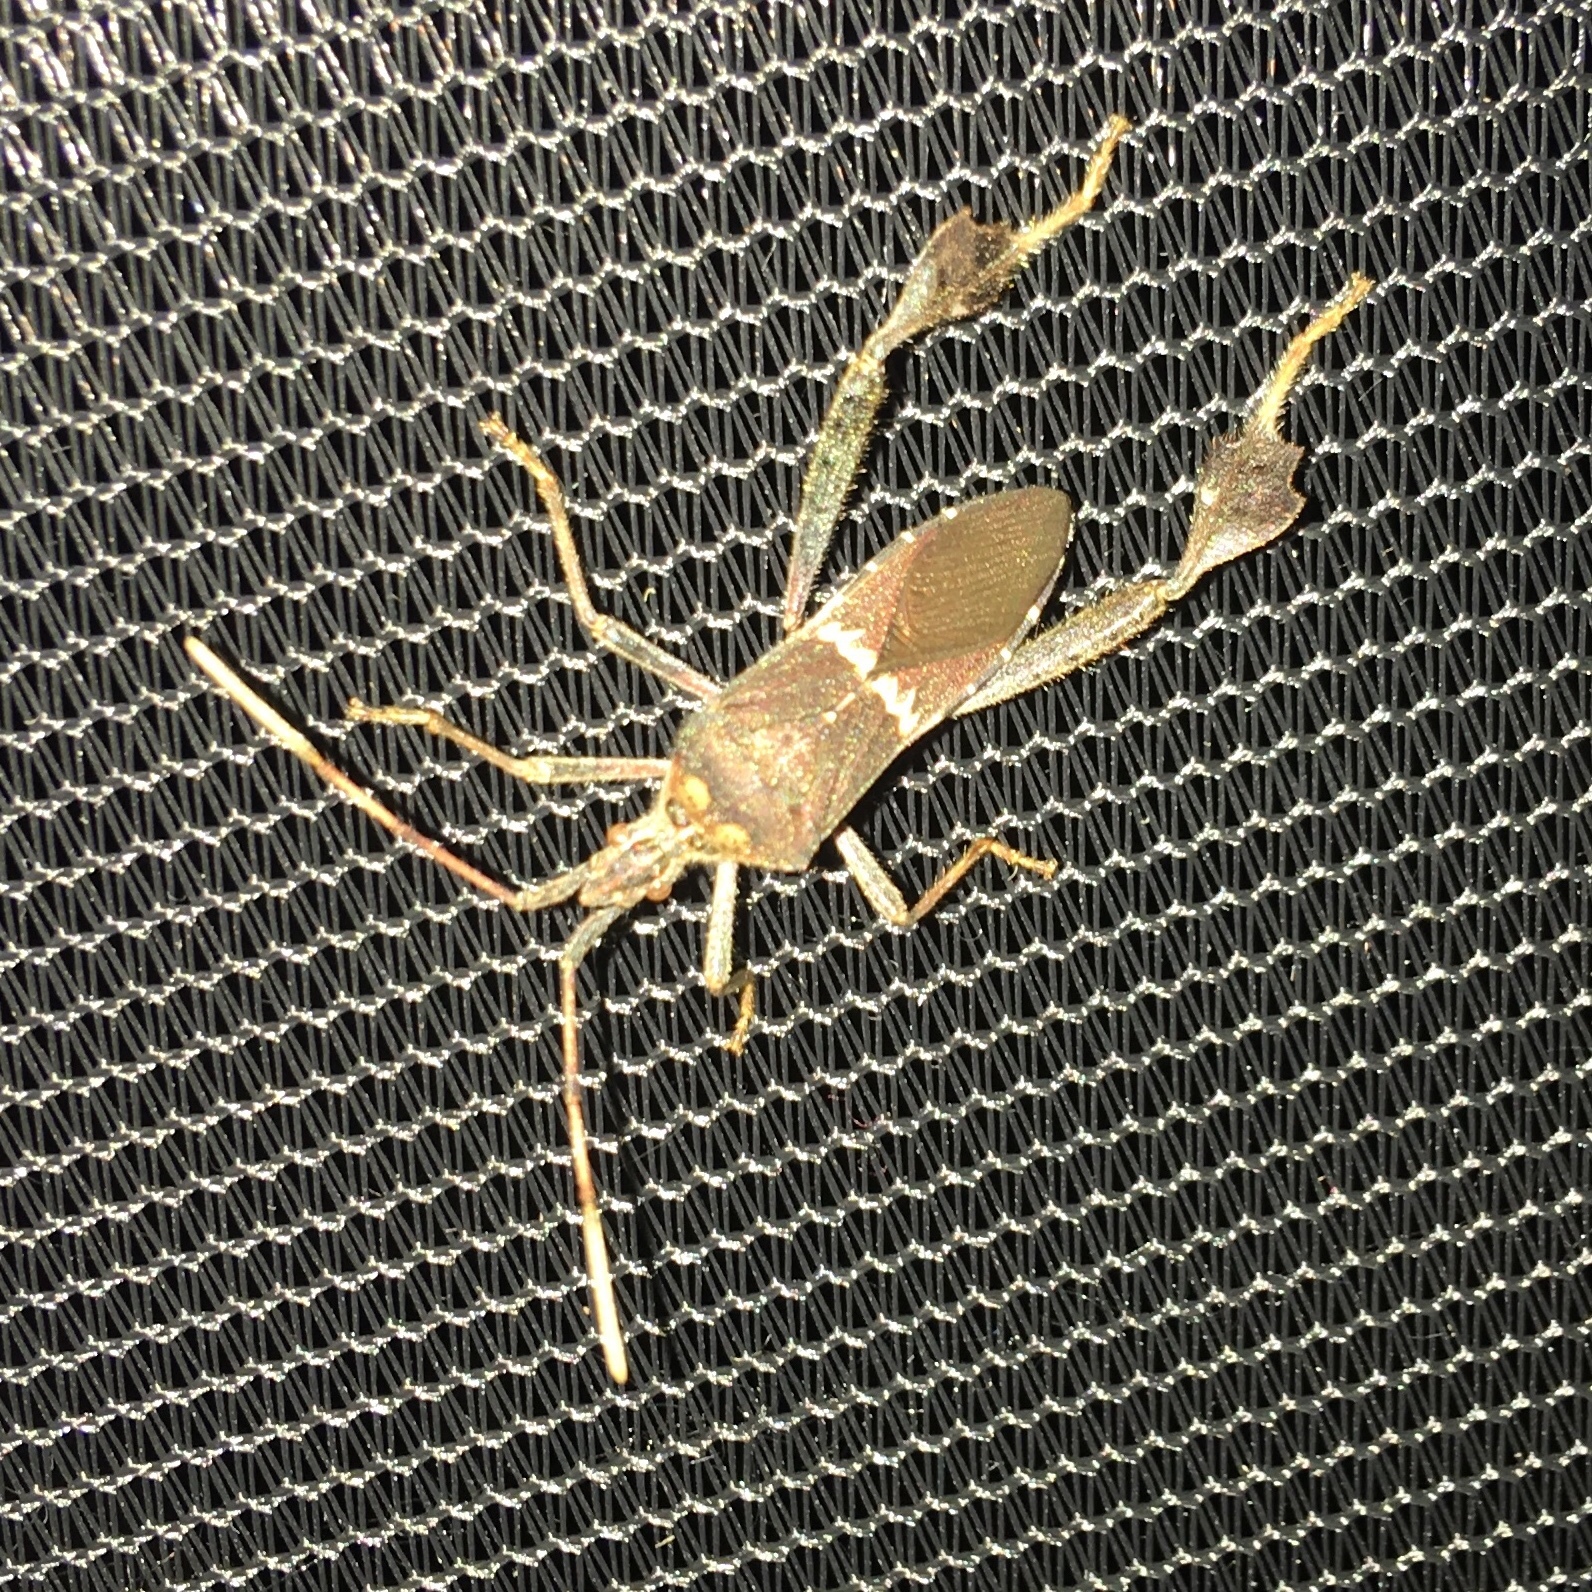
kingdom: Animalia
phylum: Arthropoda
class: Insecta
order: Hemiptera
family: Coreidae
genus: Leptoglossus
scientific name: Leptoglossus zonatus
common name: Large-legged bug
